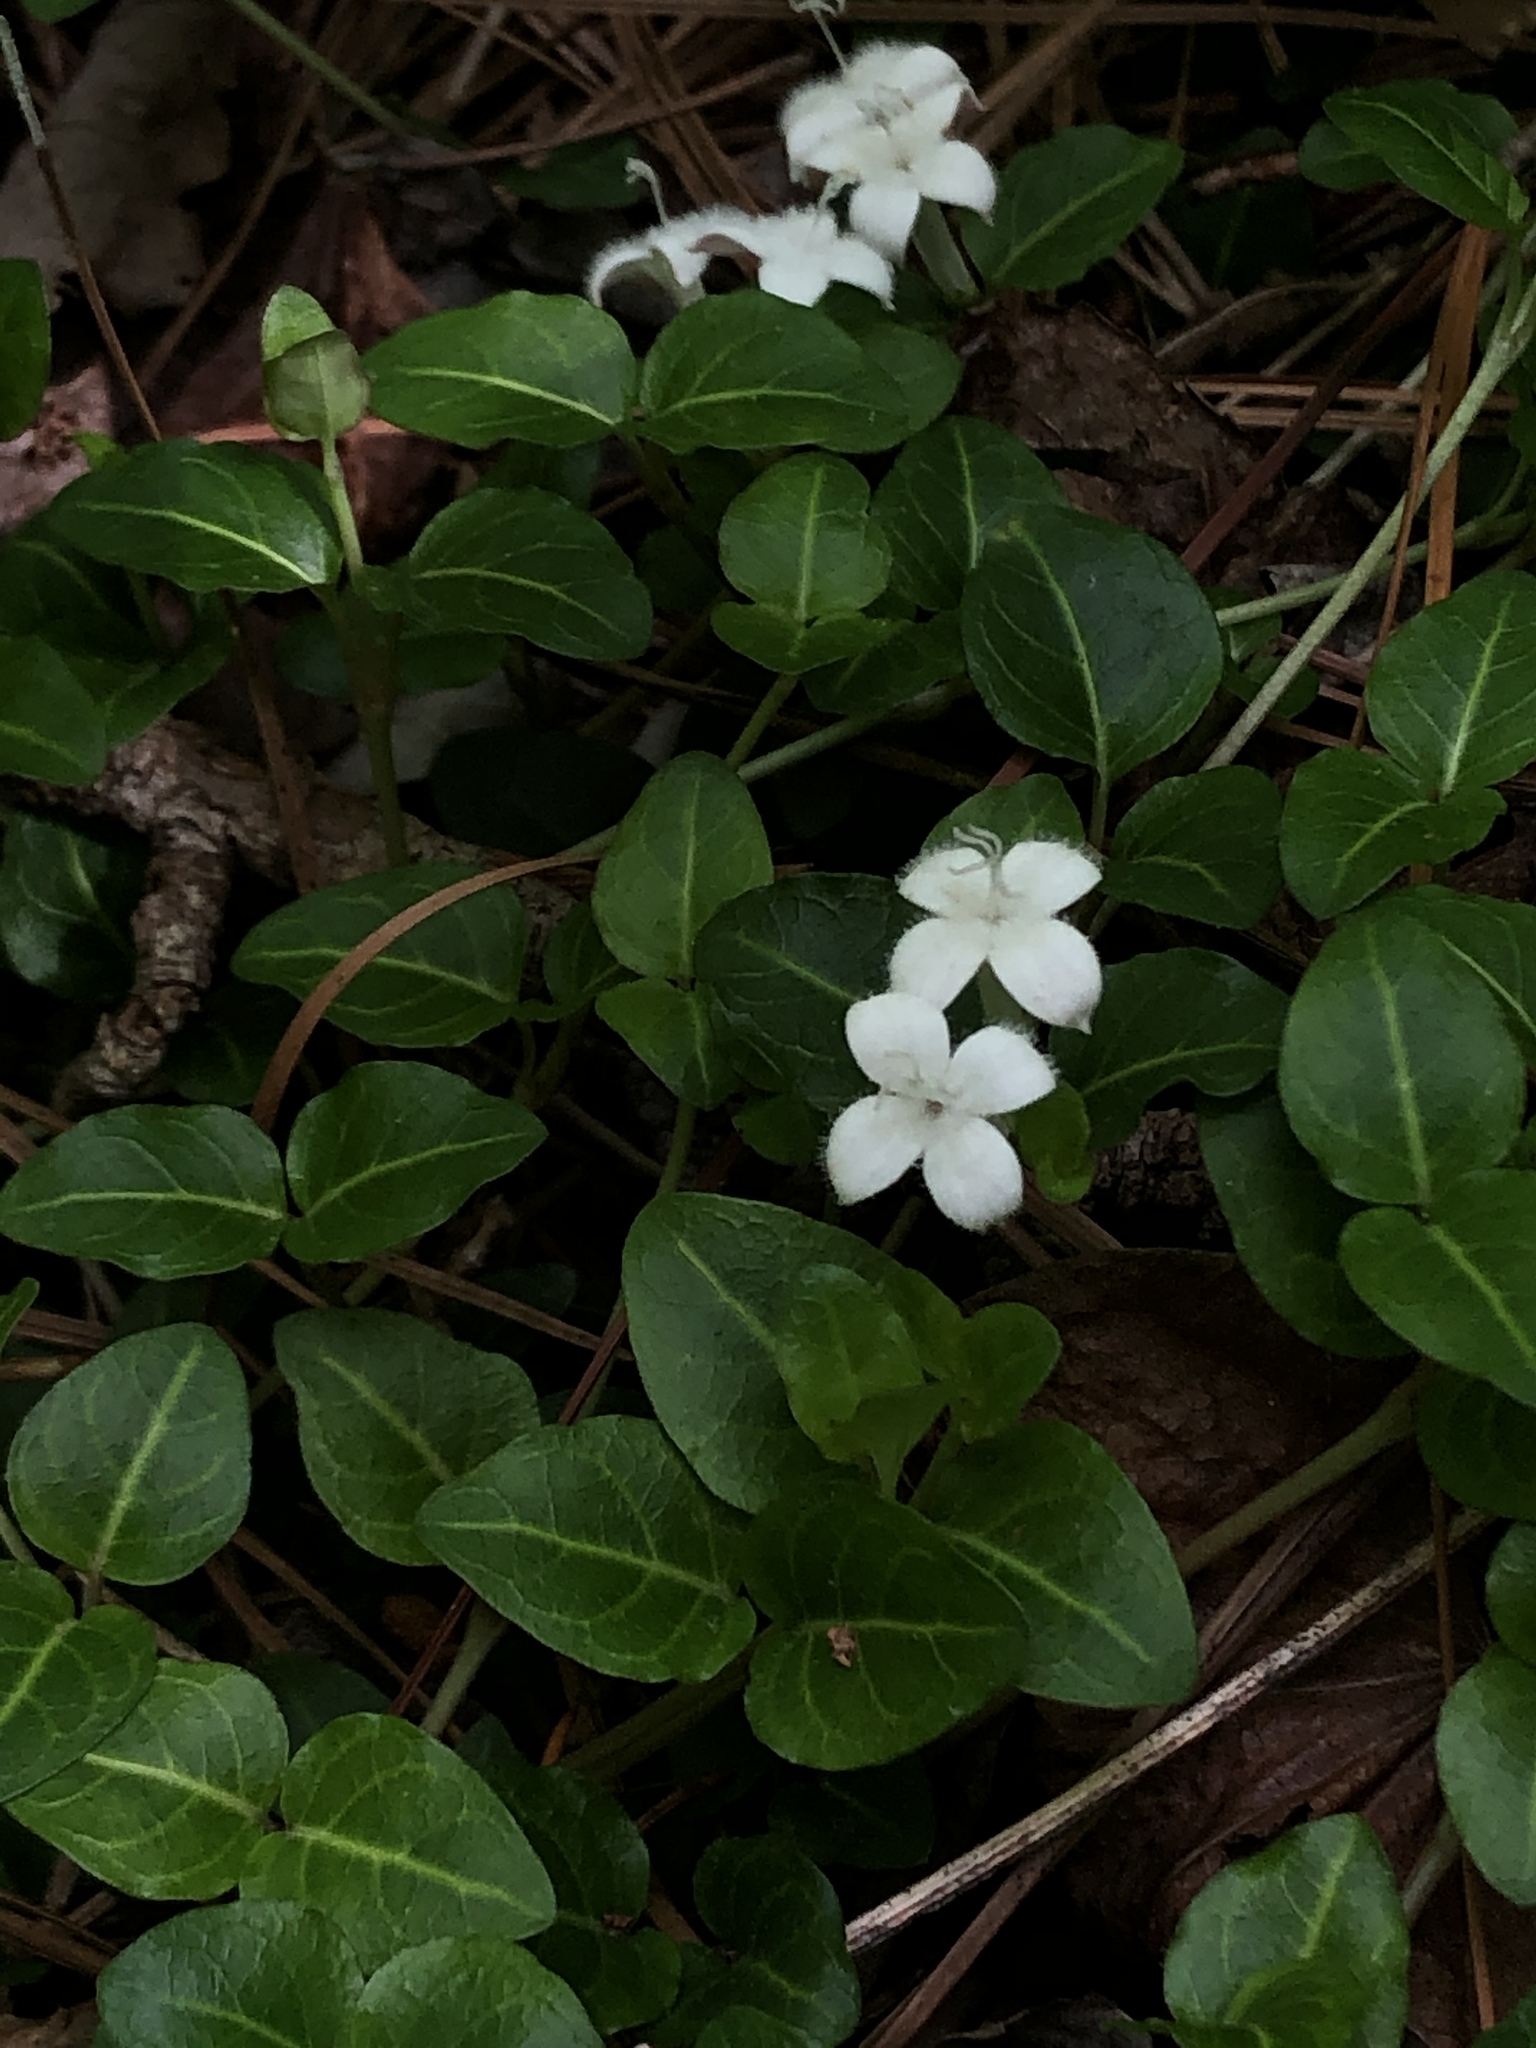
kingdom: Plantae
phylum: Tracheophyta
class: Magnoliopsida
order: Gentianales
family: Rubiaceae
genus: Mitchella
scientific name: Mitchella repens
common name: Partridge-berry
